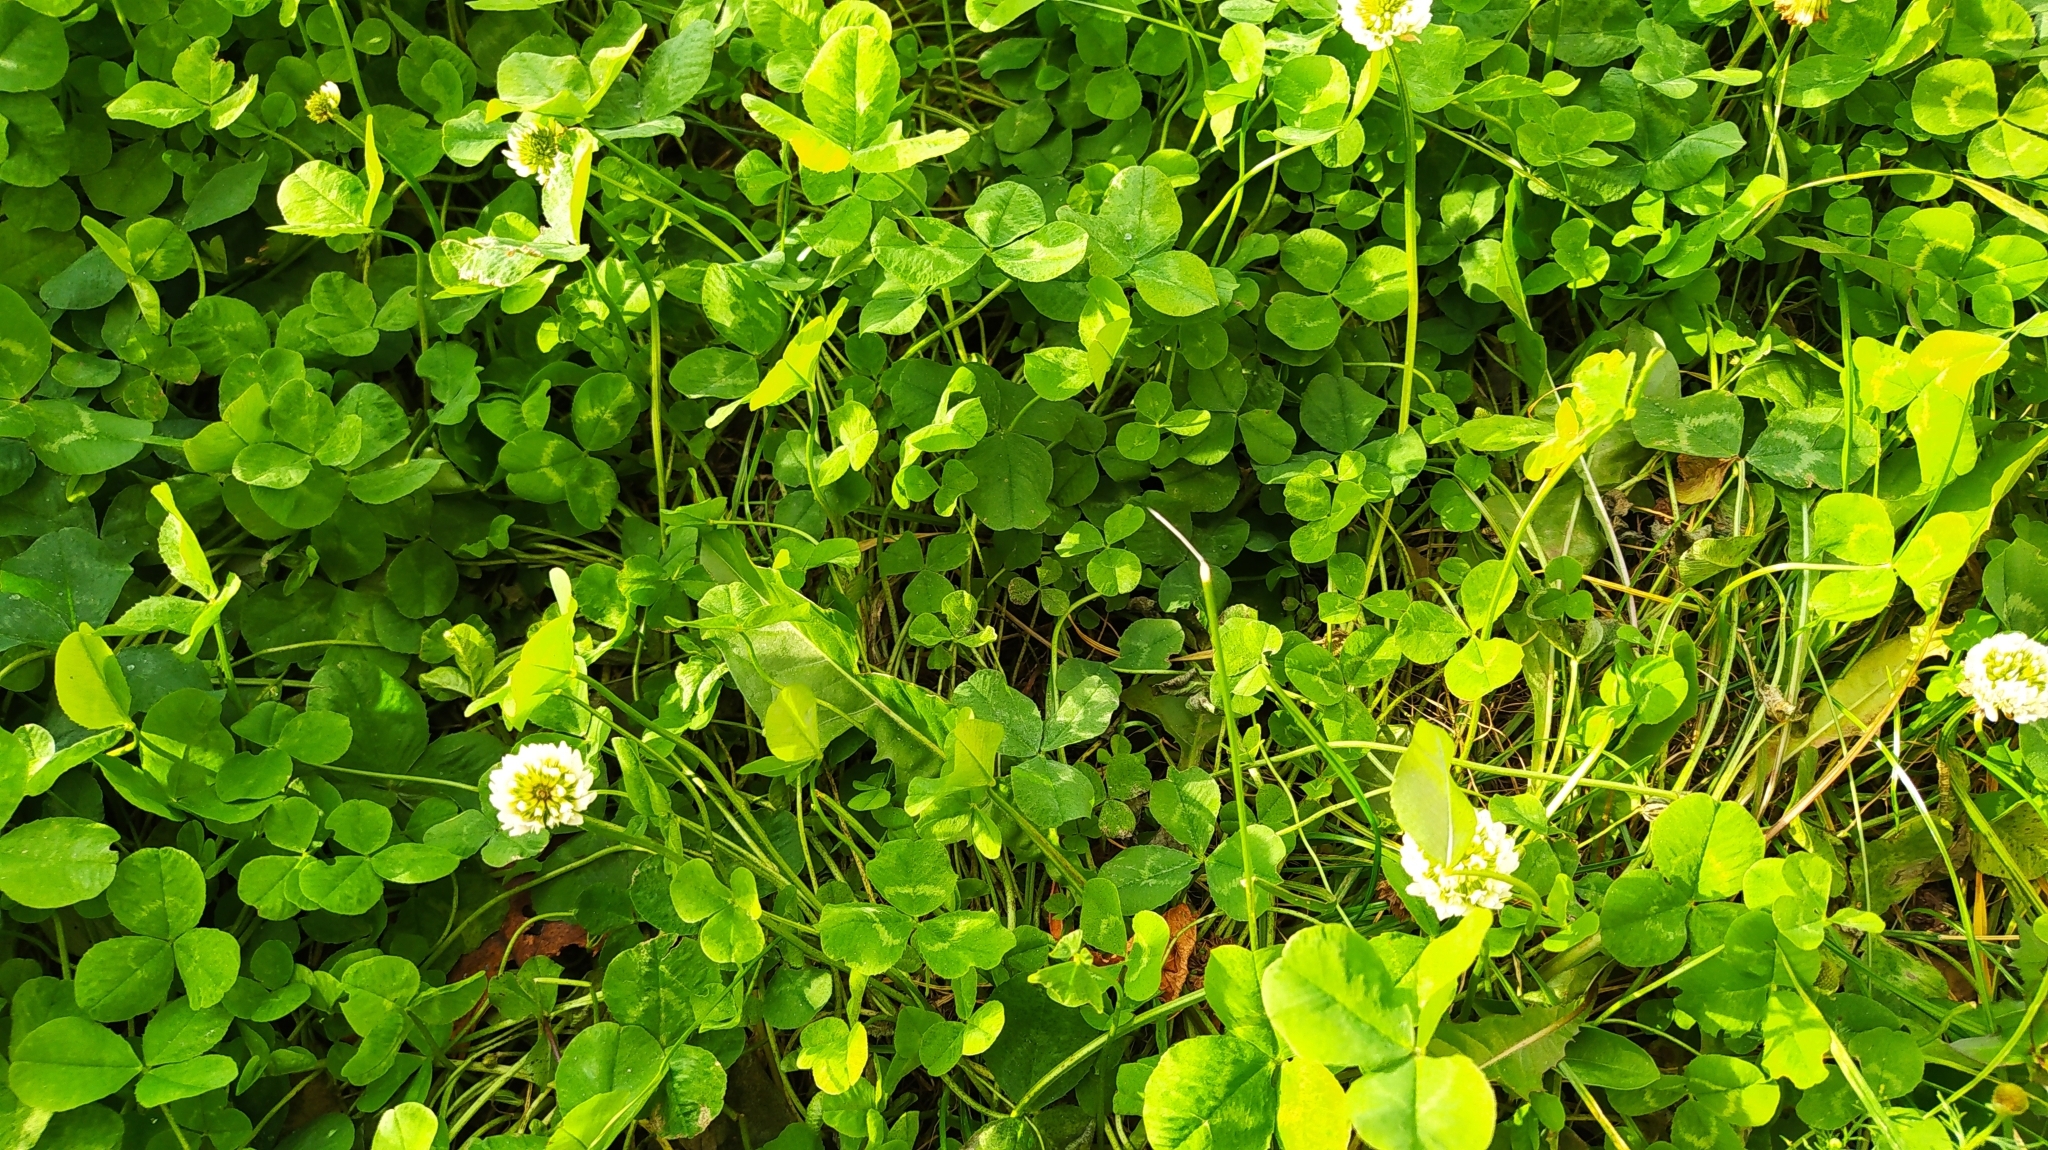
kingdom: Plantae
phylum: Tracheophyta
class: Magnoliopsida
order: Fabales
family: Fabaceae
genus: Trifolium
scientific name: Trifolium repens
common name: White clover
